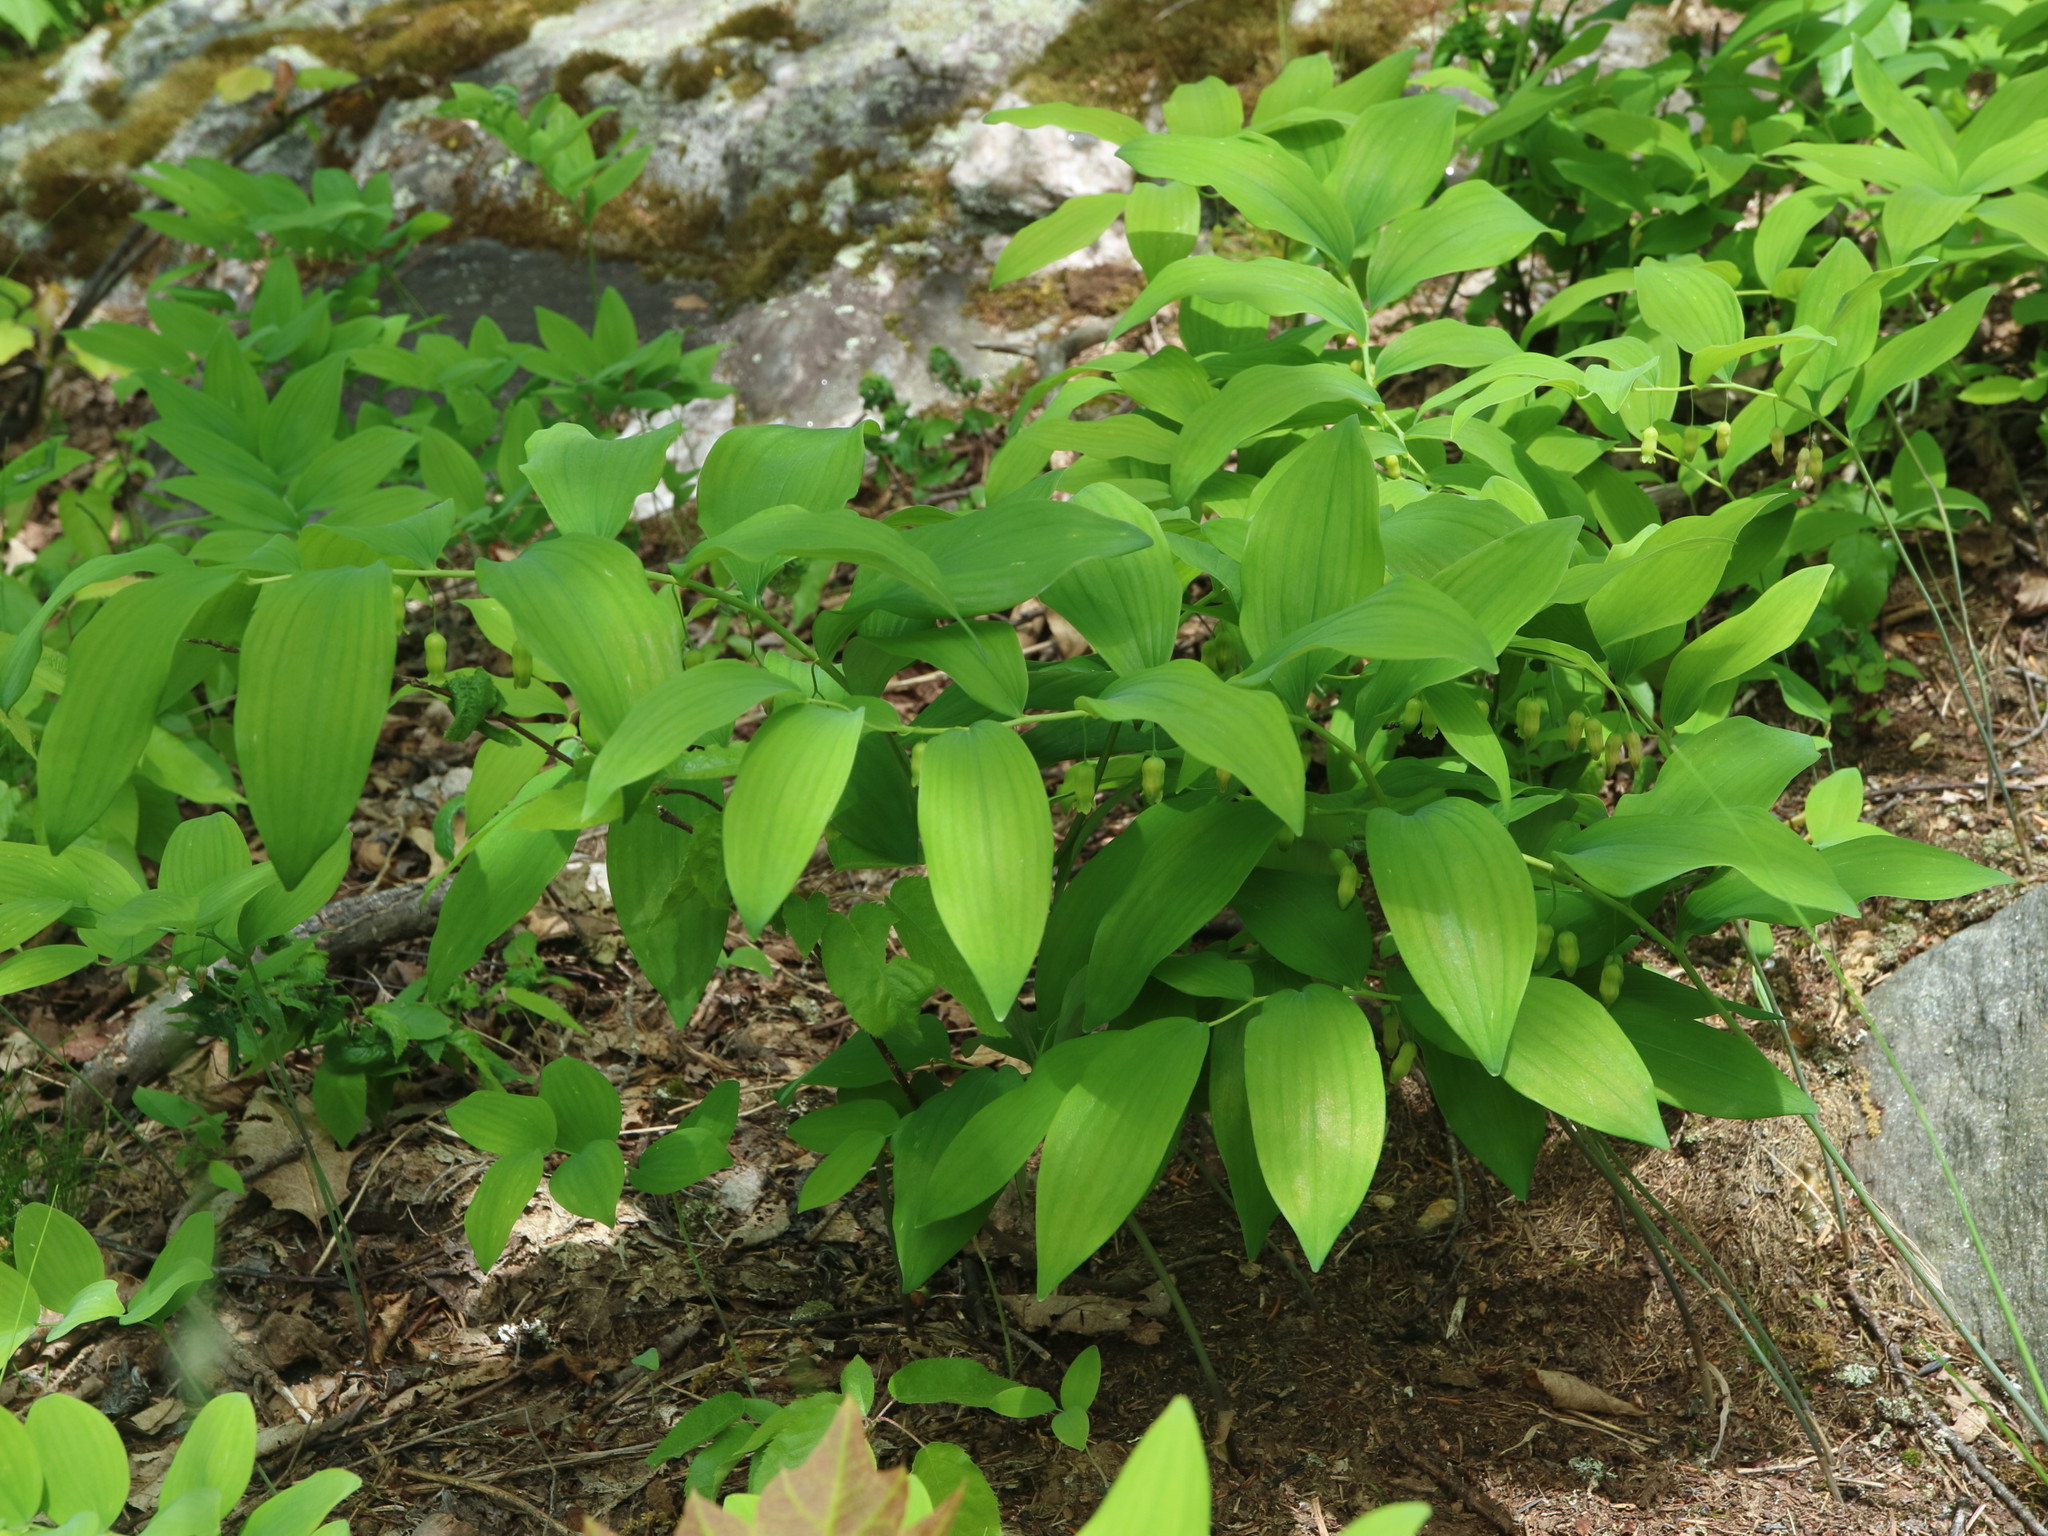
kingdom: Plantae
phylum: Tracheophyta
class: Liliopsida
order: Asparagales
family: Asparagaceae
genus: Polygonatum
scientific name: Polygonatum pubescens
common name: Downy solomon's seal
